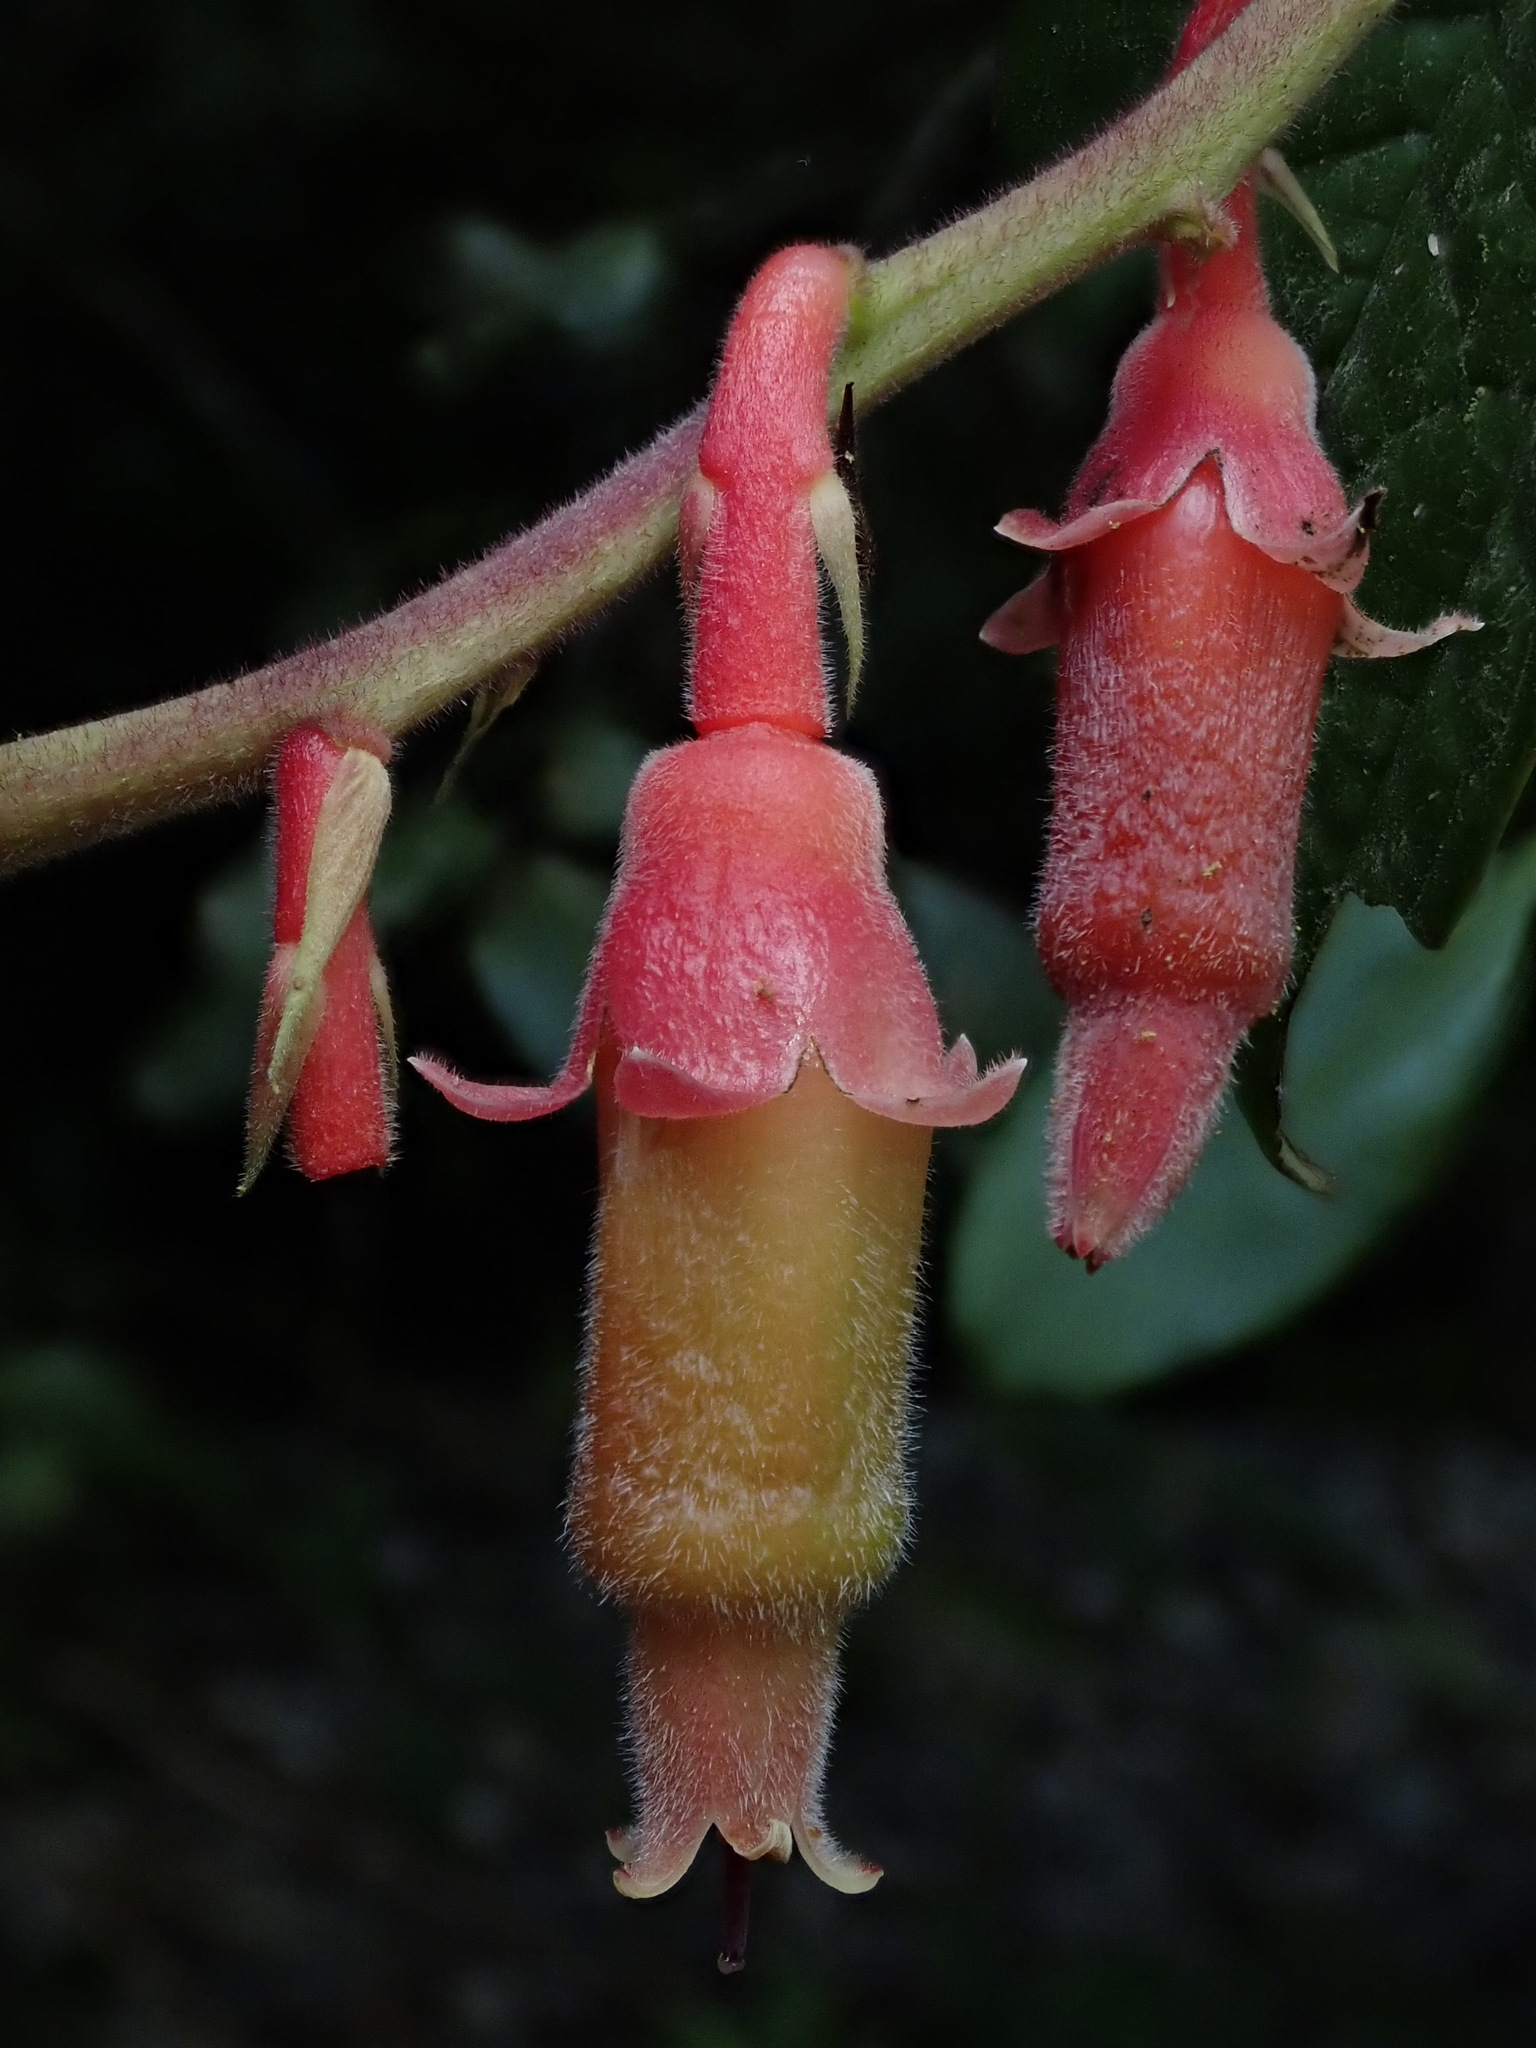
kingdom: Plantae
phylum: Tracheophyta
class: Magnoliopsida
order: Ericales
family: Ericaceae
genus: Psammisia
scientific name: Psammisia ferruginea
